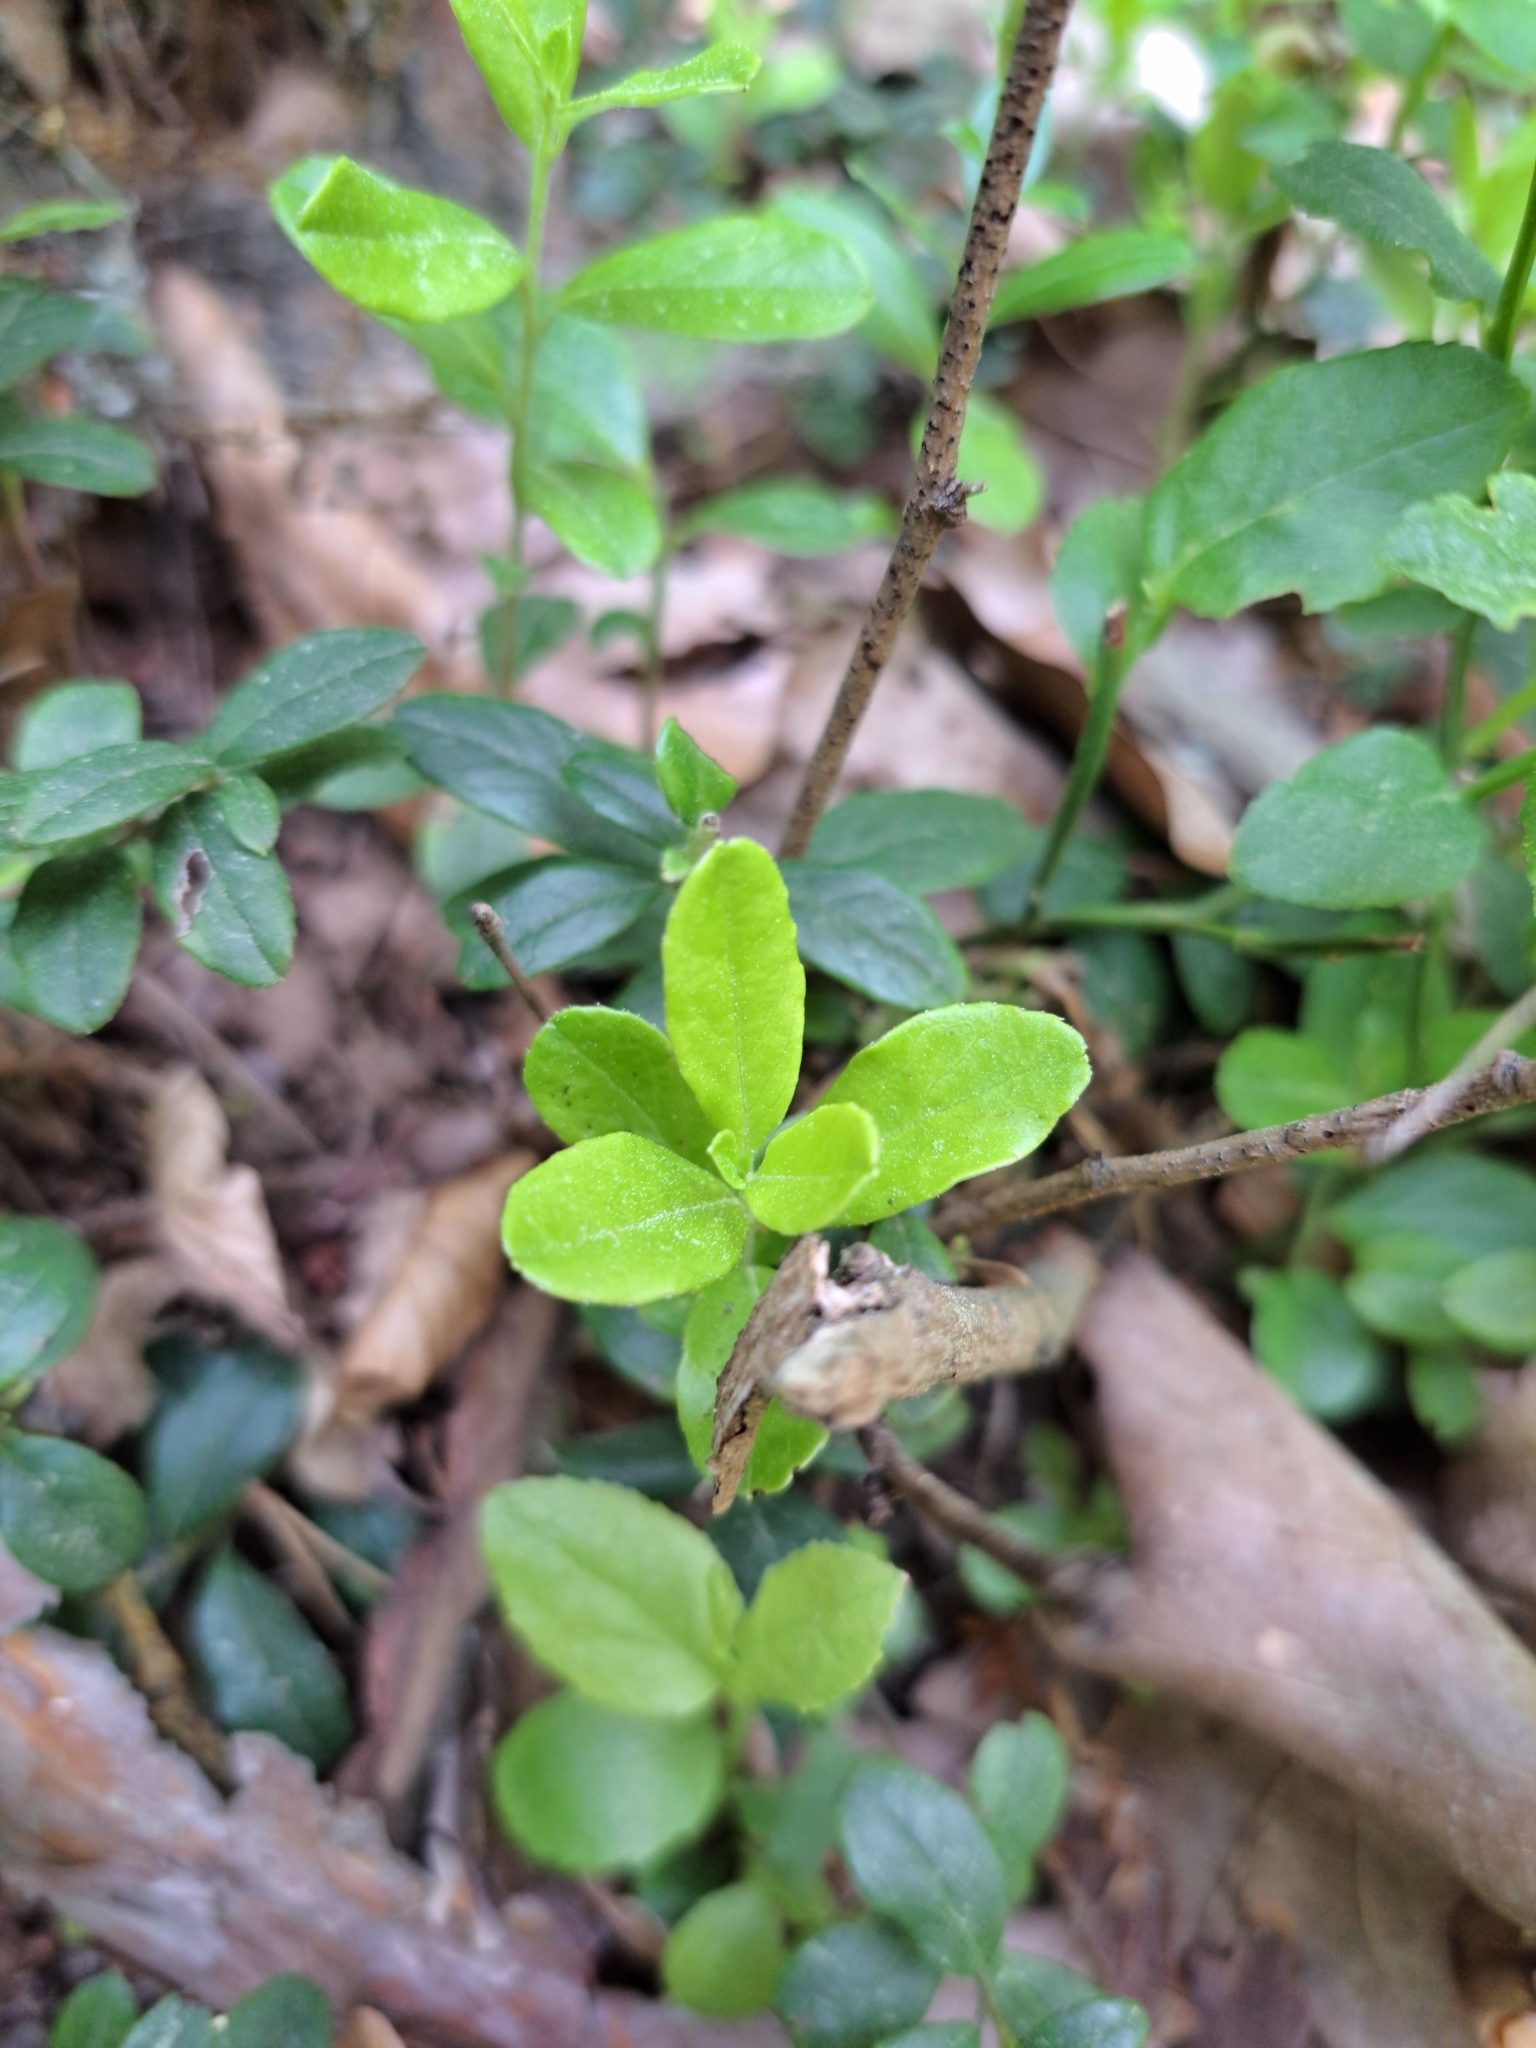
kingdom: Plantae
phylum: Tracheophyta
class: Magnoliopsida
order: Ericales
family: Ericaceae
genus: Vaccinium
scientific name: Vaccinium vitis-idaea
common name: Cowberry
